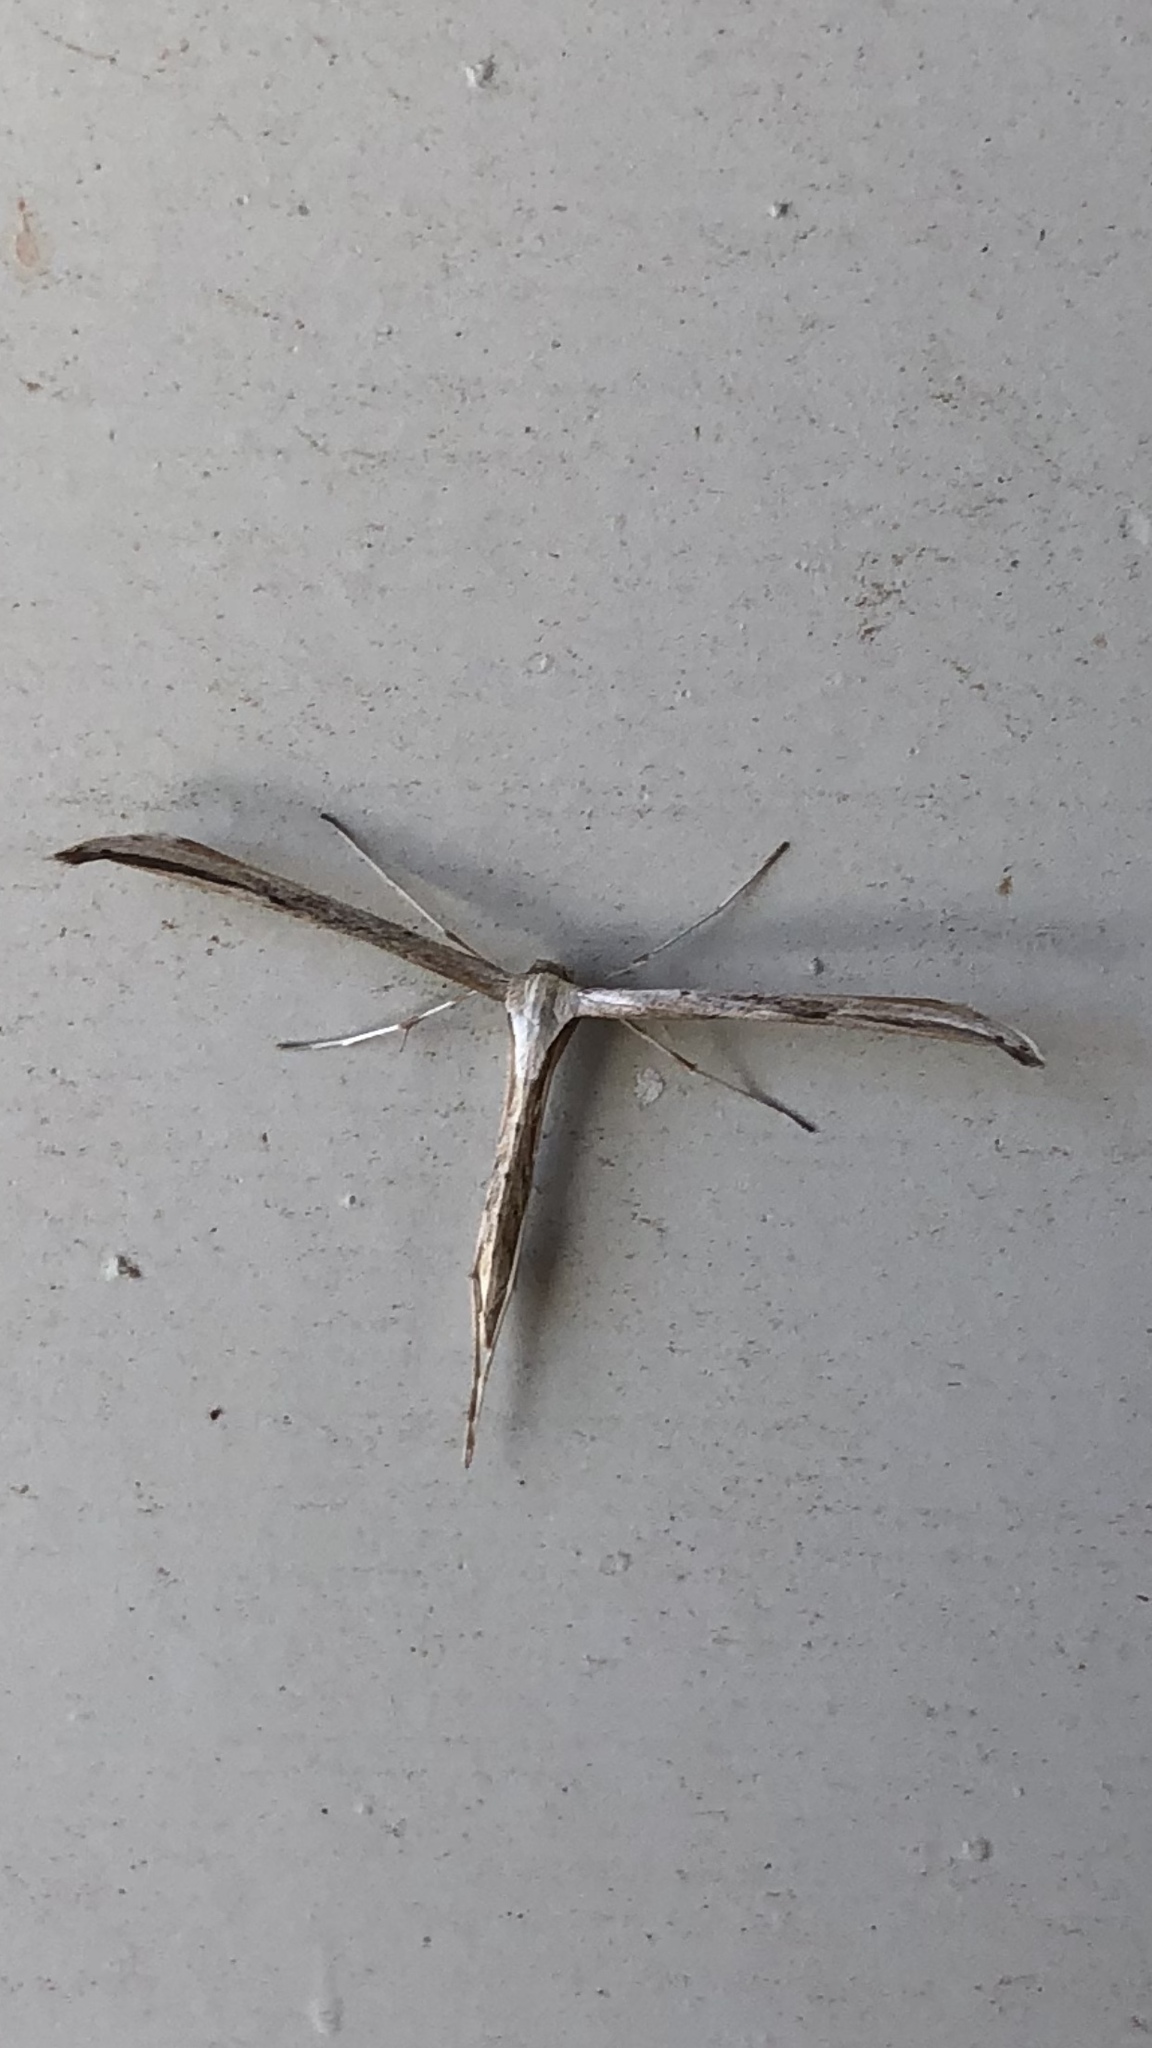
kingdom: Animalia
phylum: Arthropoda
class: Insecta
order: Lepidoptera
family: Pterophoridae
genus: Emmelina
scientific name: Emmelina monodactyla
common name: Common plume
